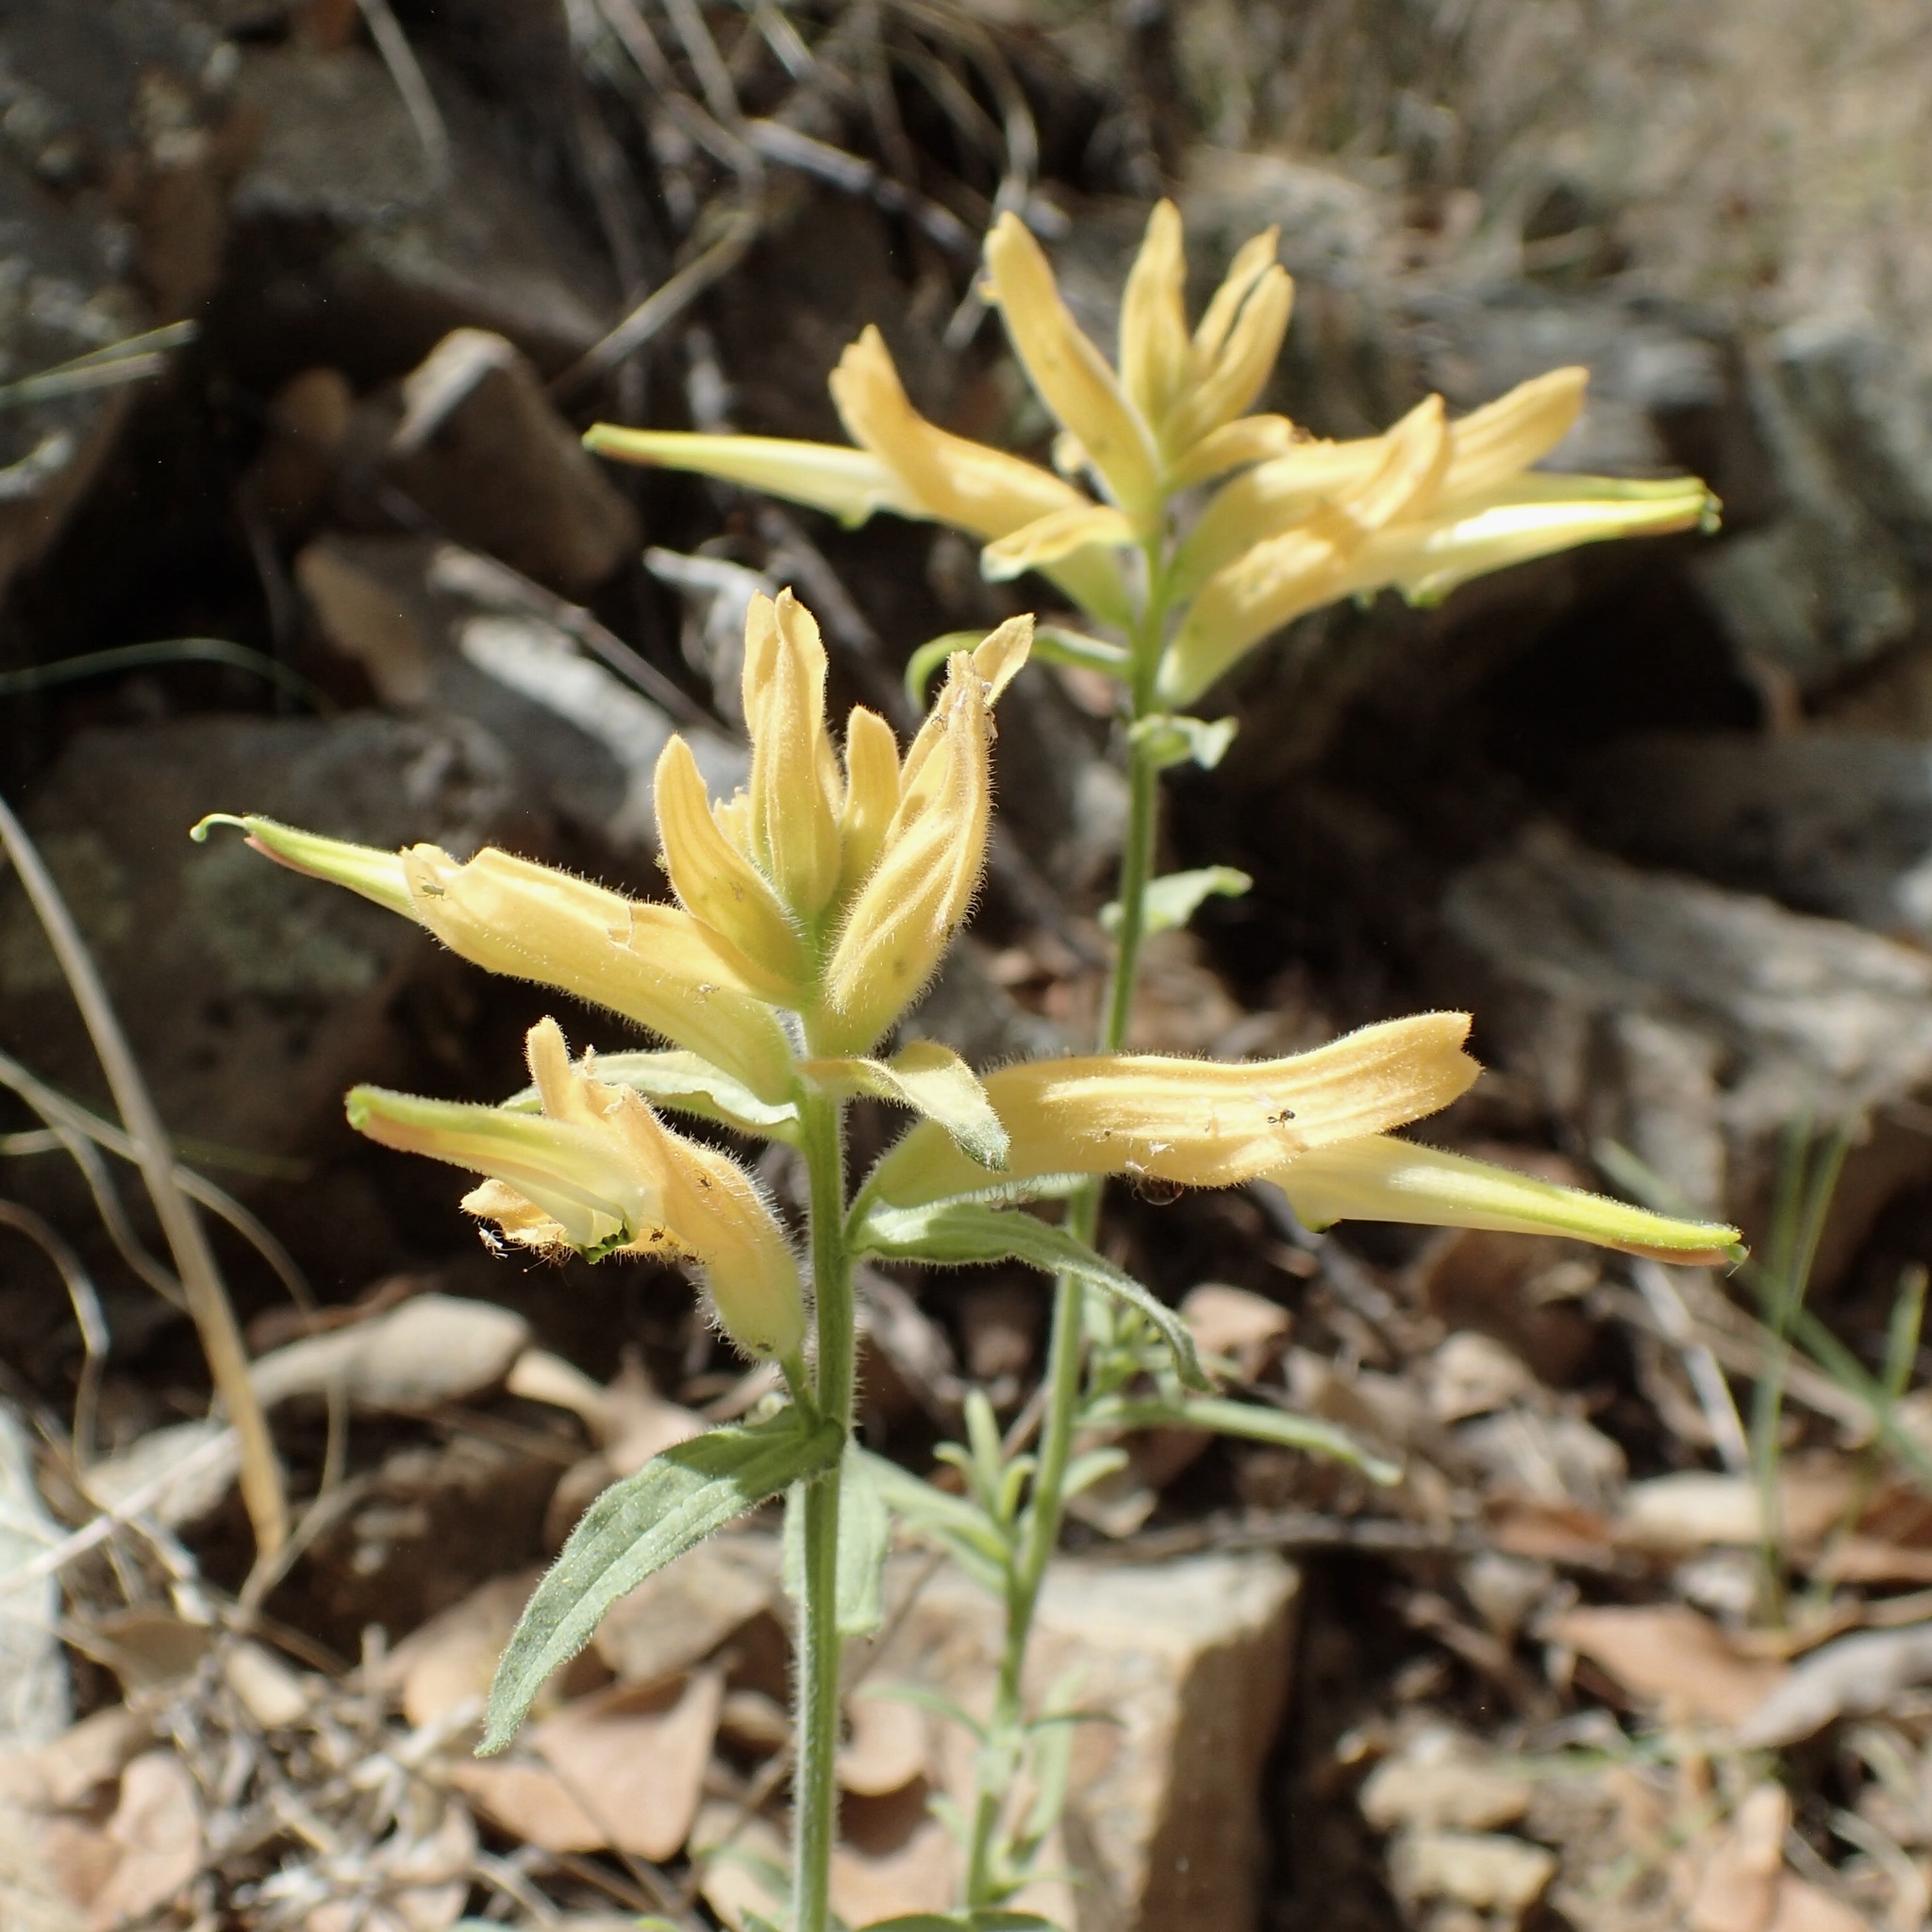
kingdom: Plantae
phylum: Tracheophyta
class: Magnoliopsida
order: Lamiales
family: Orobanchaceae
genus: Castilleja
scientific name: Castilleja tenuiflora
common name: Santa catalina indian paintbrush
